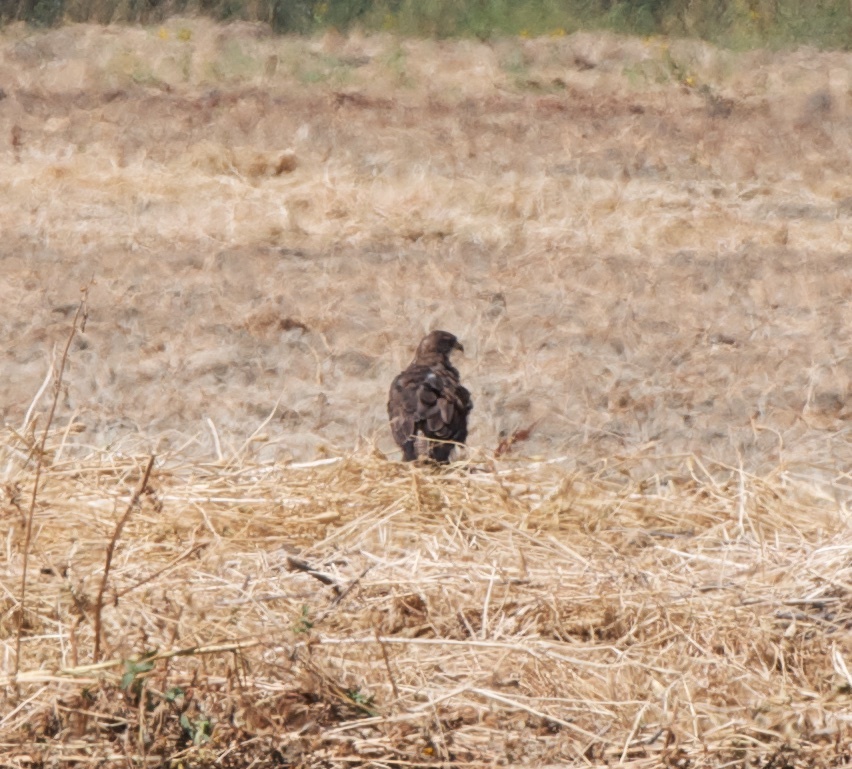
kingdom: Animalia
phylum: Chordata
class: Aves
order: Accipitriformes
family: Accipitridae
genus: Buteo
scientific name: Buteo swainsoni
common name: Swainson's hawk
